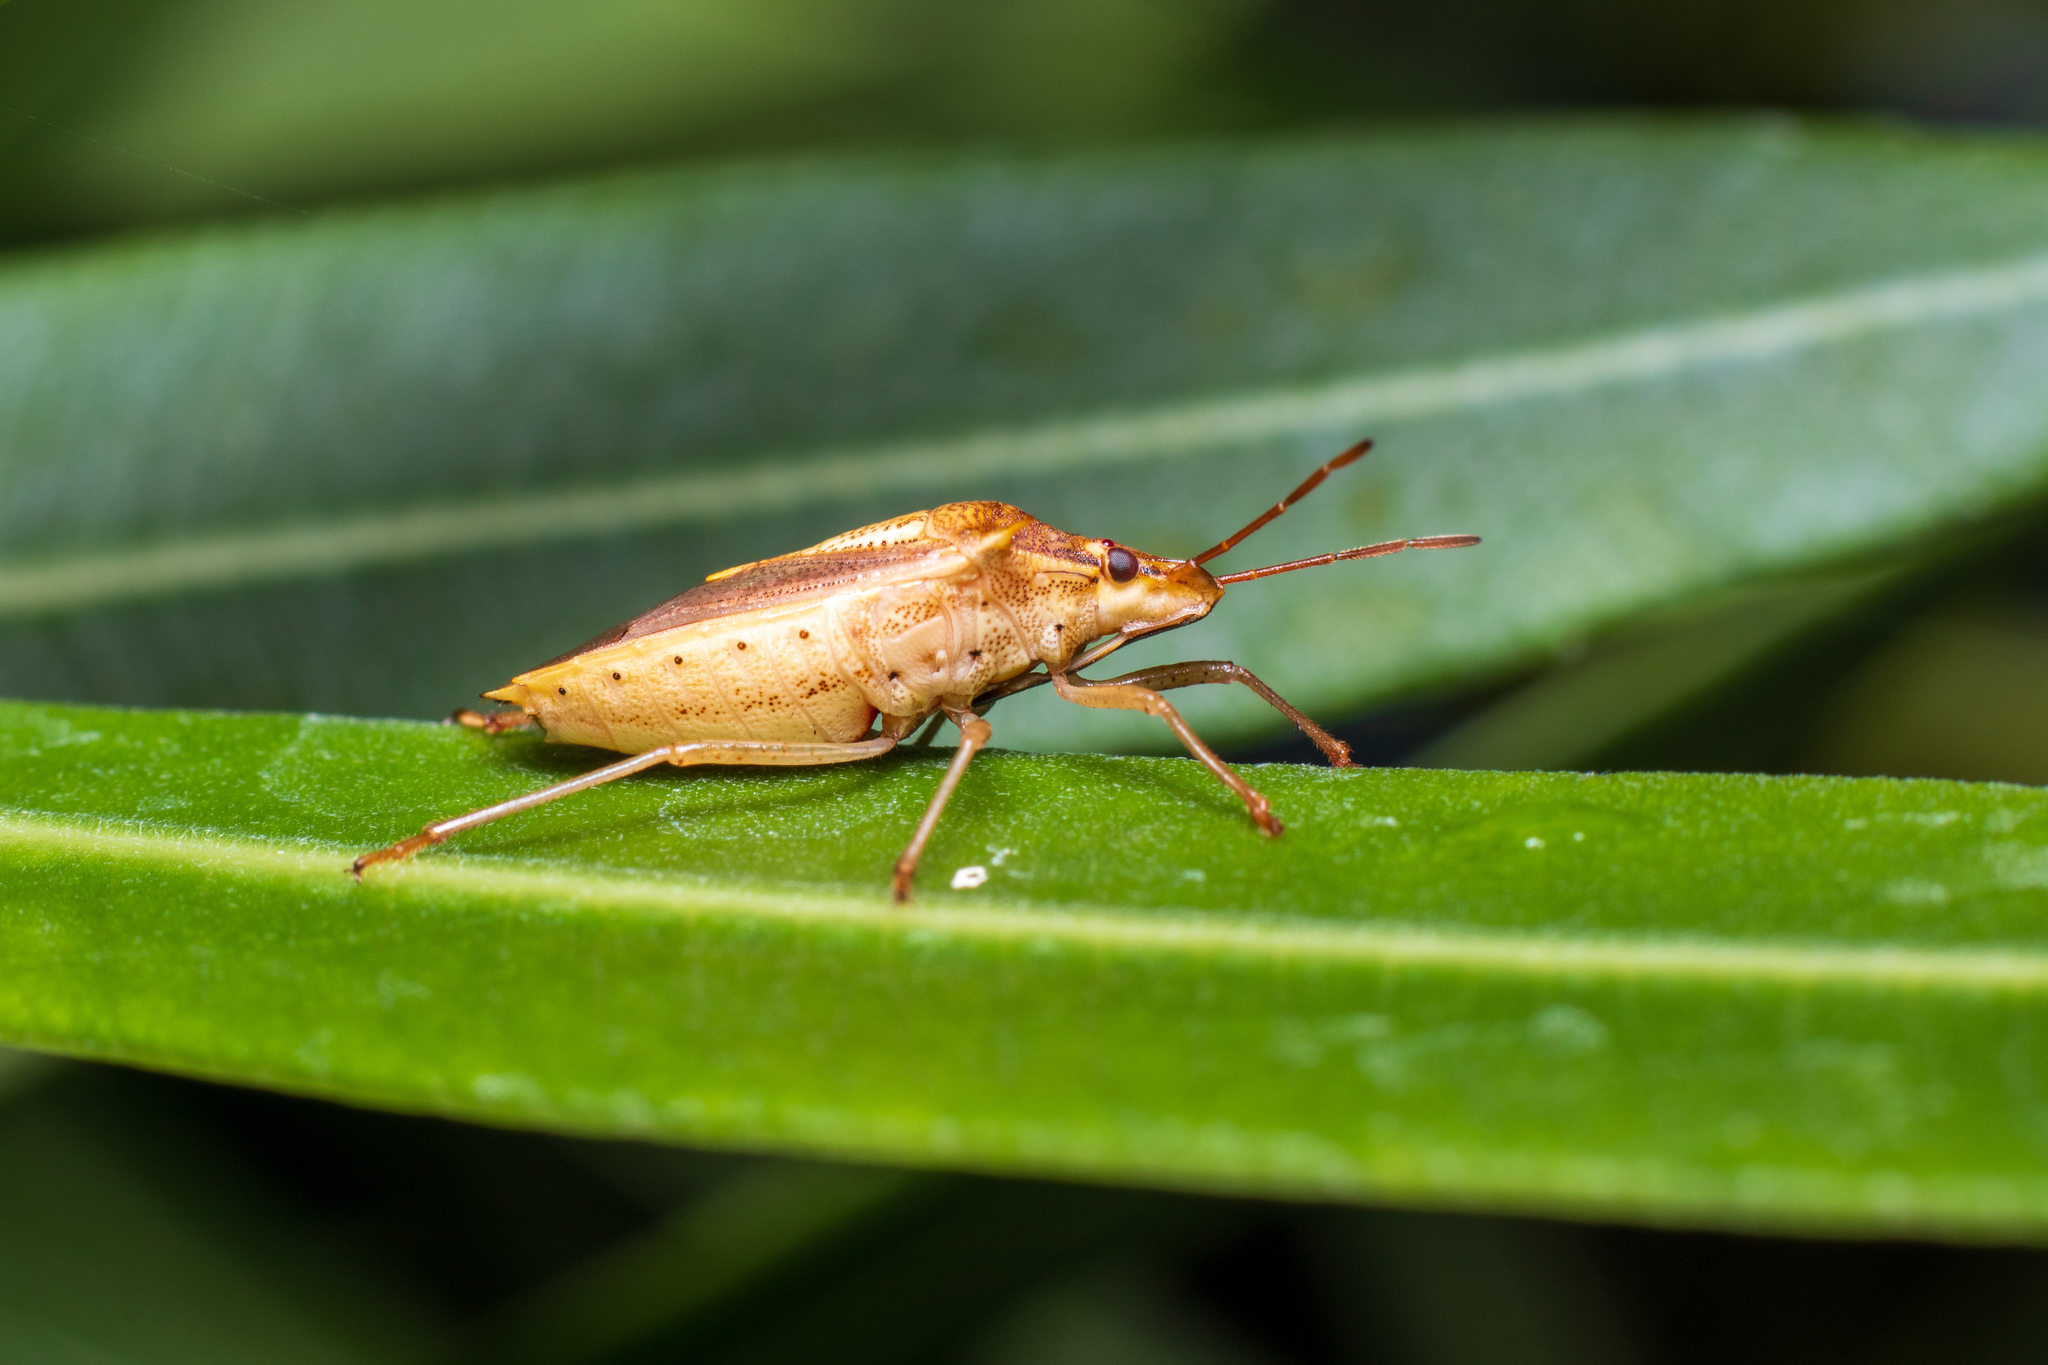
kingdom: Animalia
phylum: Arthropoda
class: Insecta
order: Hemiptera
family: Pentatomidae
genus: Oebalus
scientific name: Oebalus pugnax
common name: Rice stink bug
